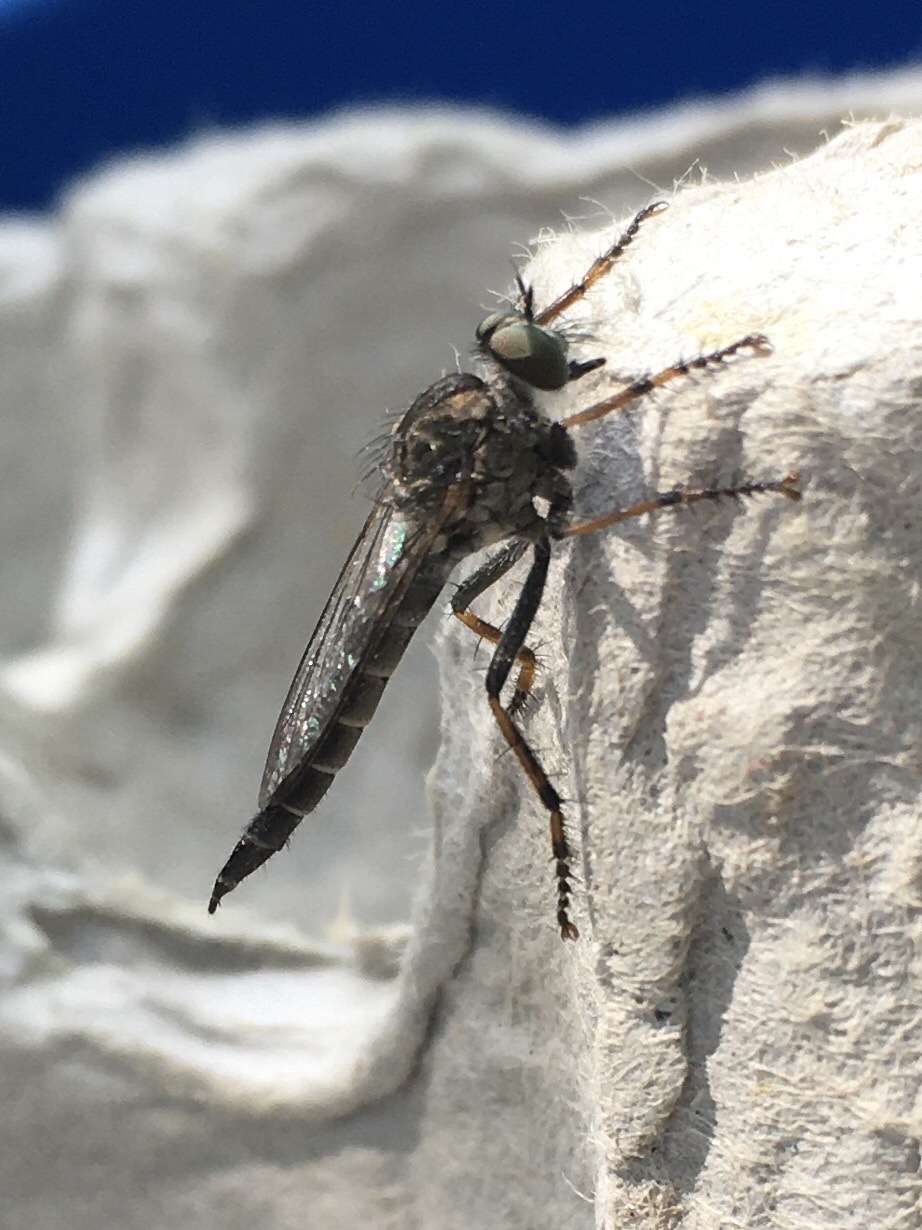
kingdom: Animalia
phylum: Arthropoda
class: Insecta
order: Diptera
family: Asilidae
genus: Machimus
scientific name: Machimus sadyates
